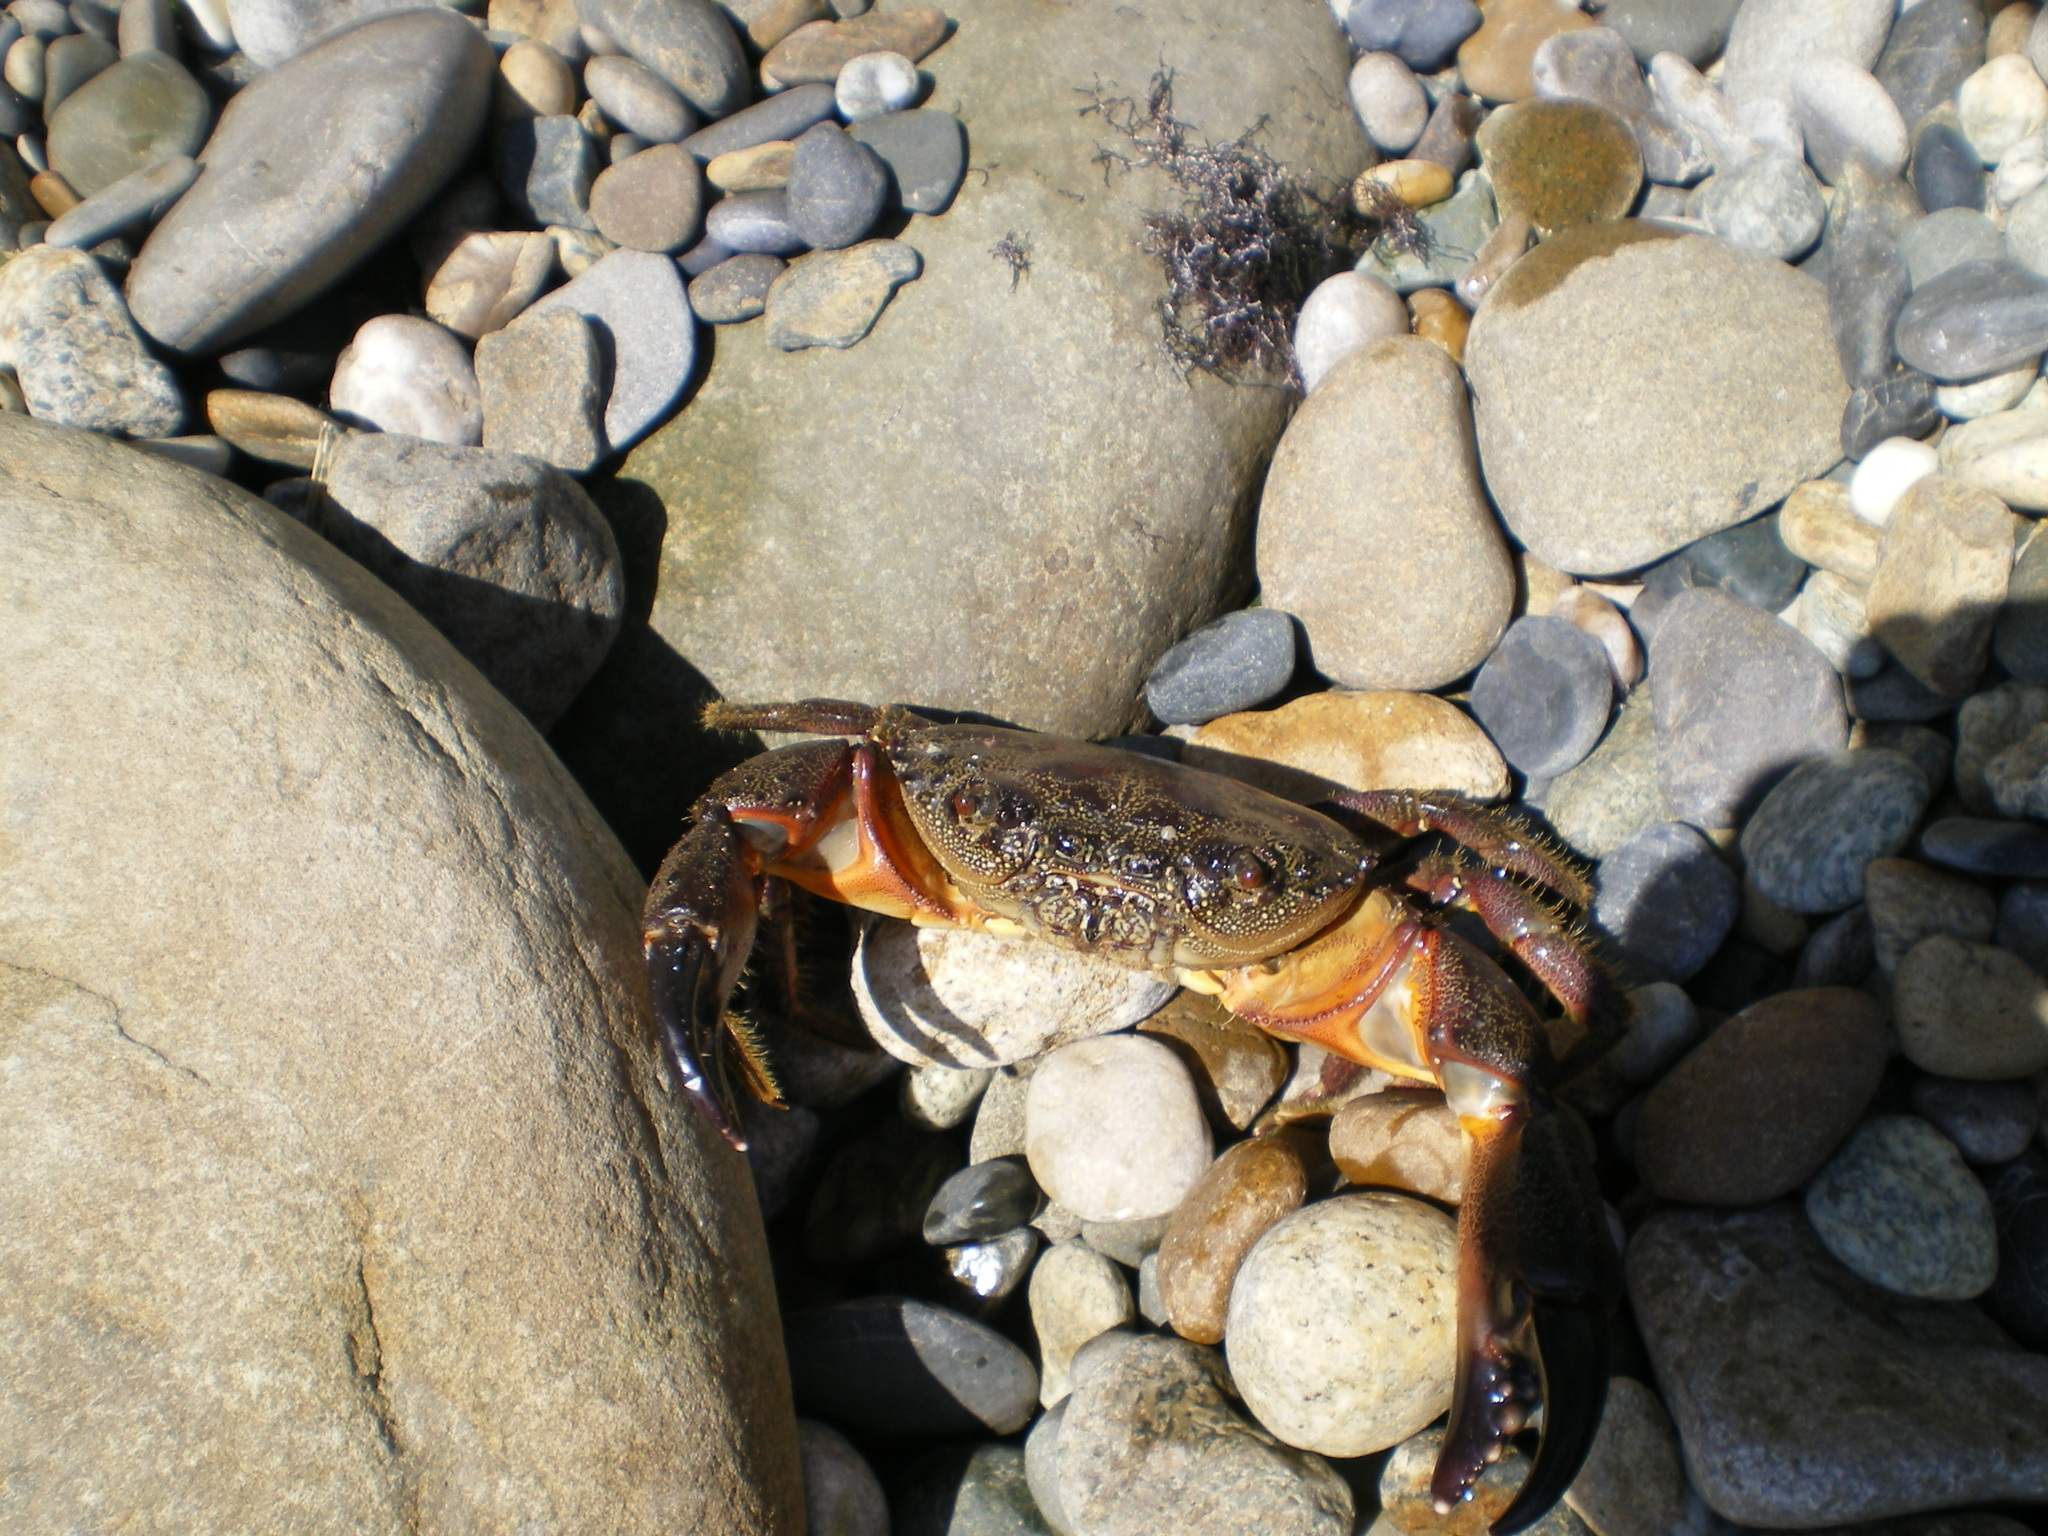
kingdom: Animalia
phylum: Arthropoda
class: Malacostraca
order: Decapoda
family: Eriphiidae
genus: Eriphia
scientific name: Eriphia verrucosa
